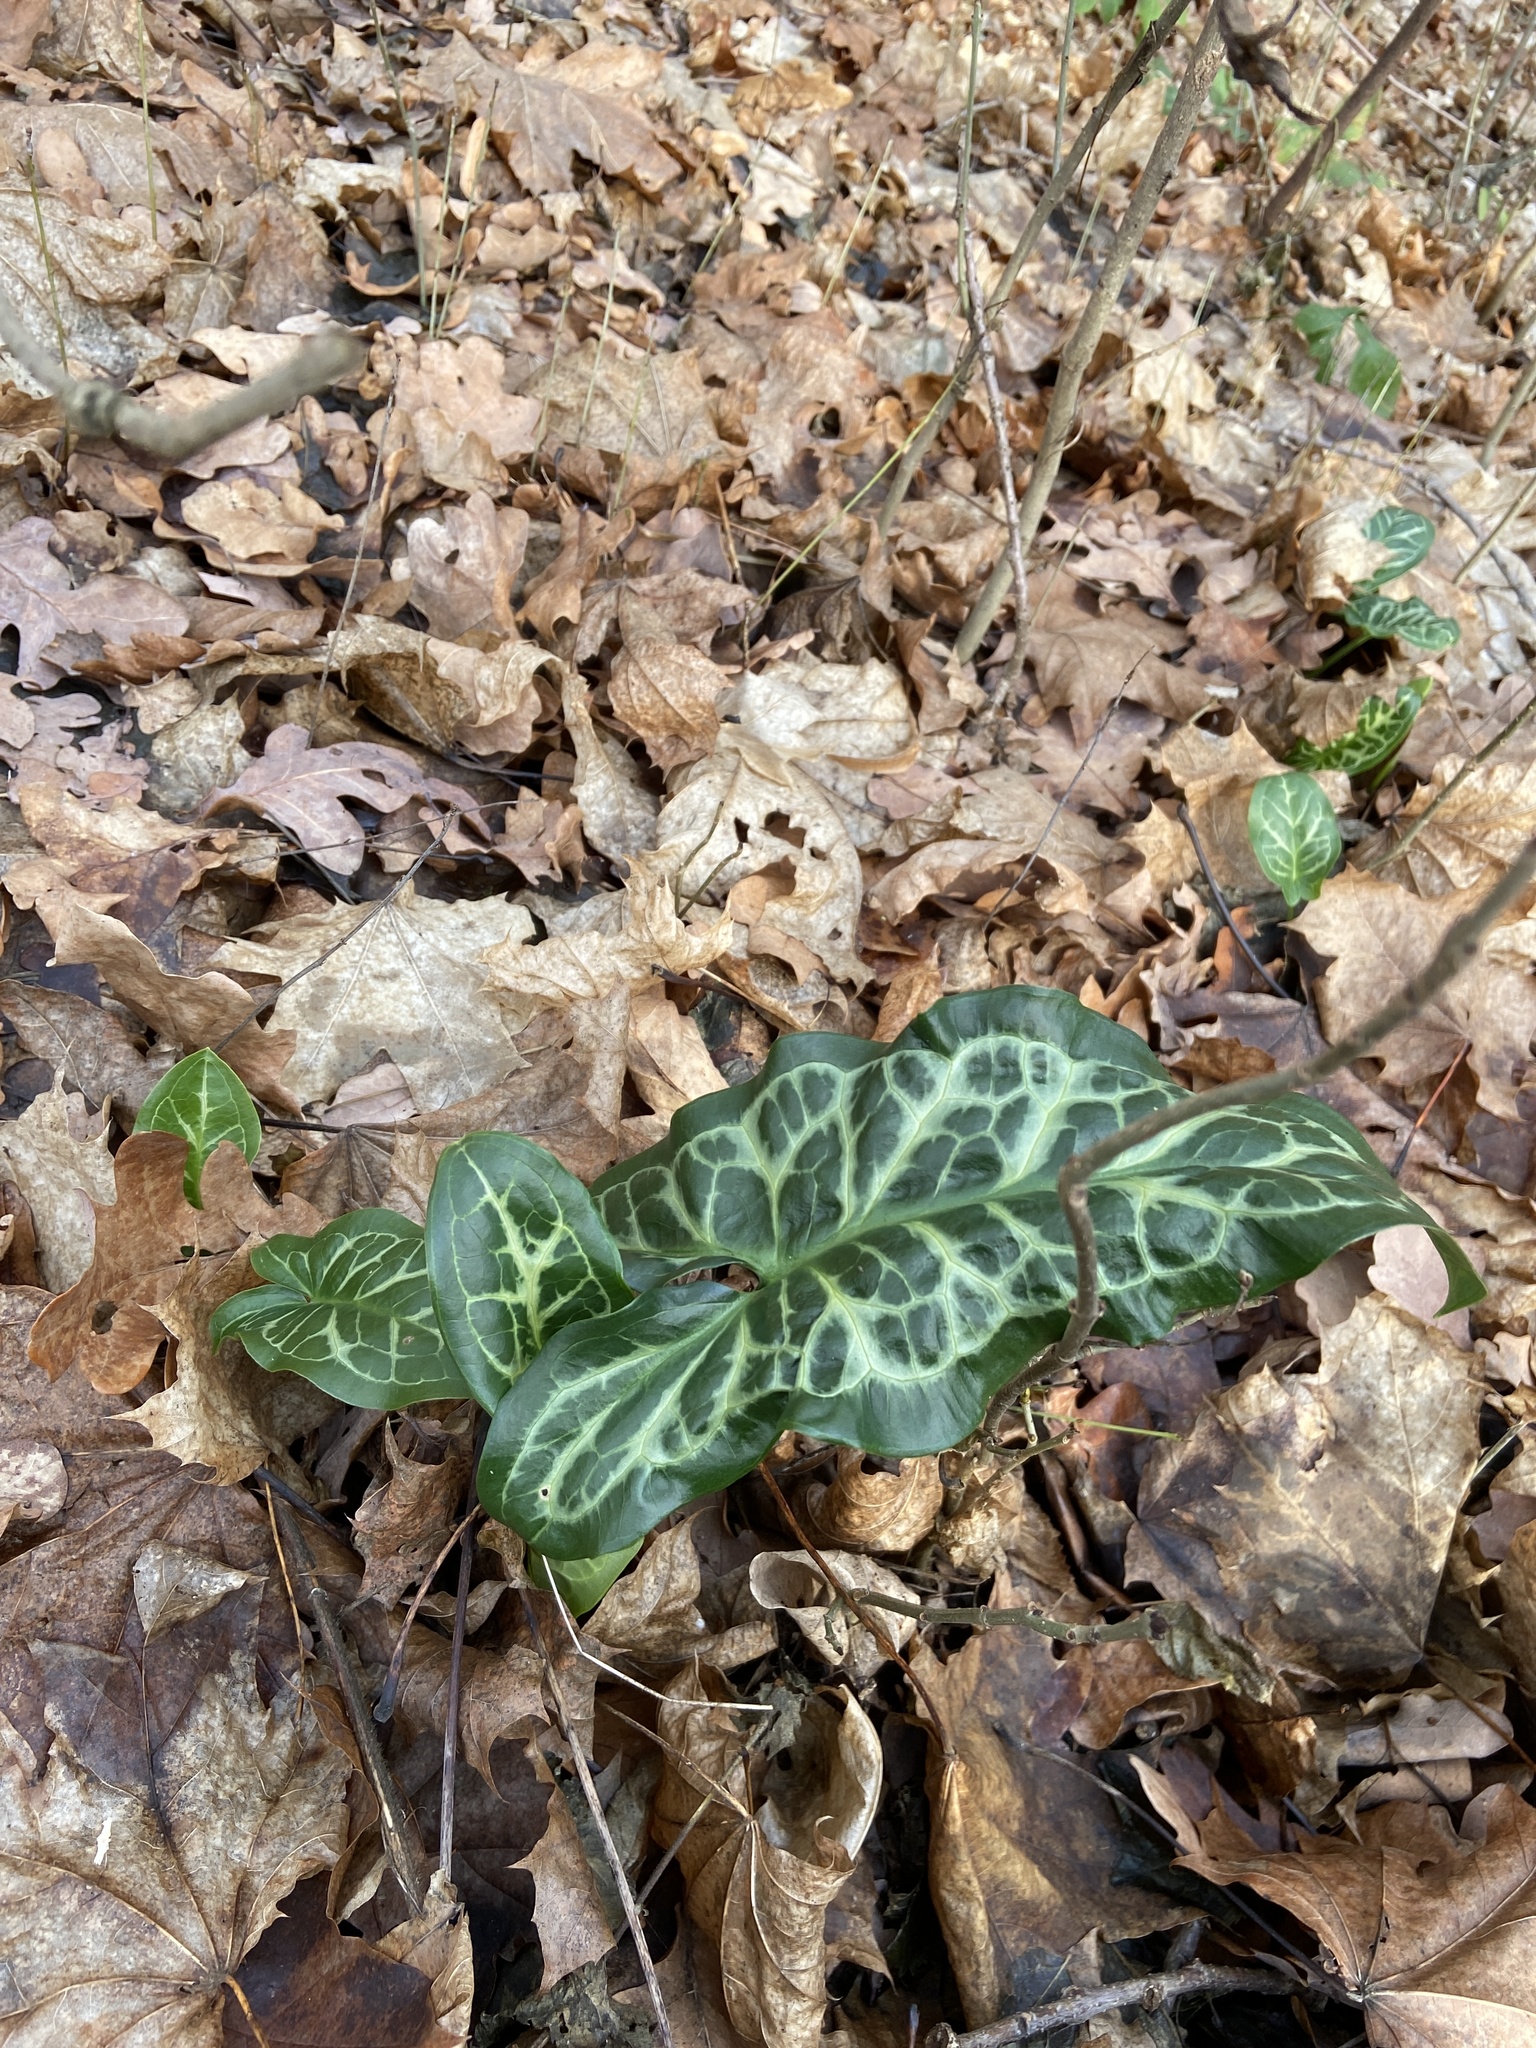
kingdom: Plantae
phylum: Tracheophyta
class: Liliopsida
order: Alismatales
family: Araceae
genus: Arum
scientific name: Arum italicum
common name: Italian lords-and-ladies
